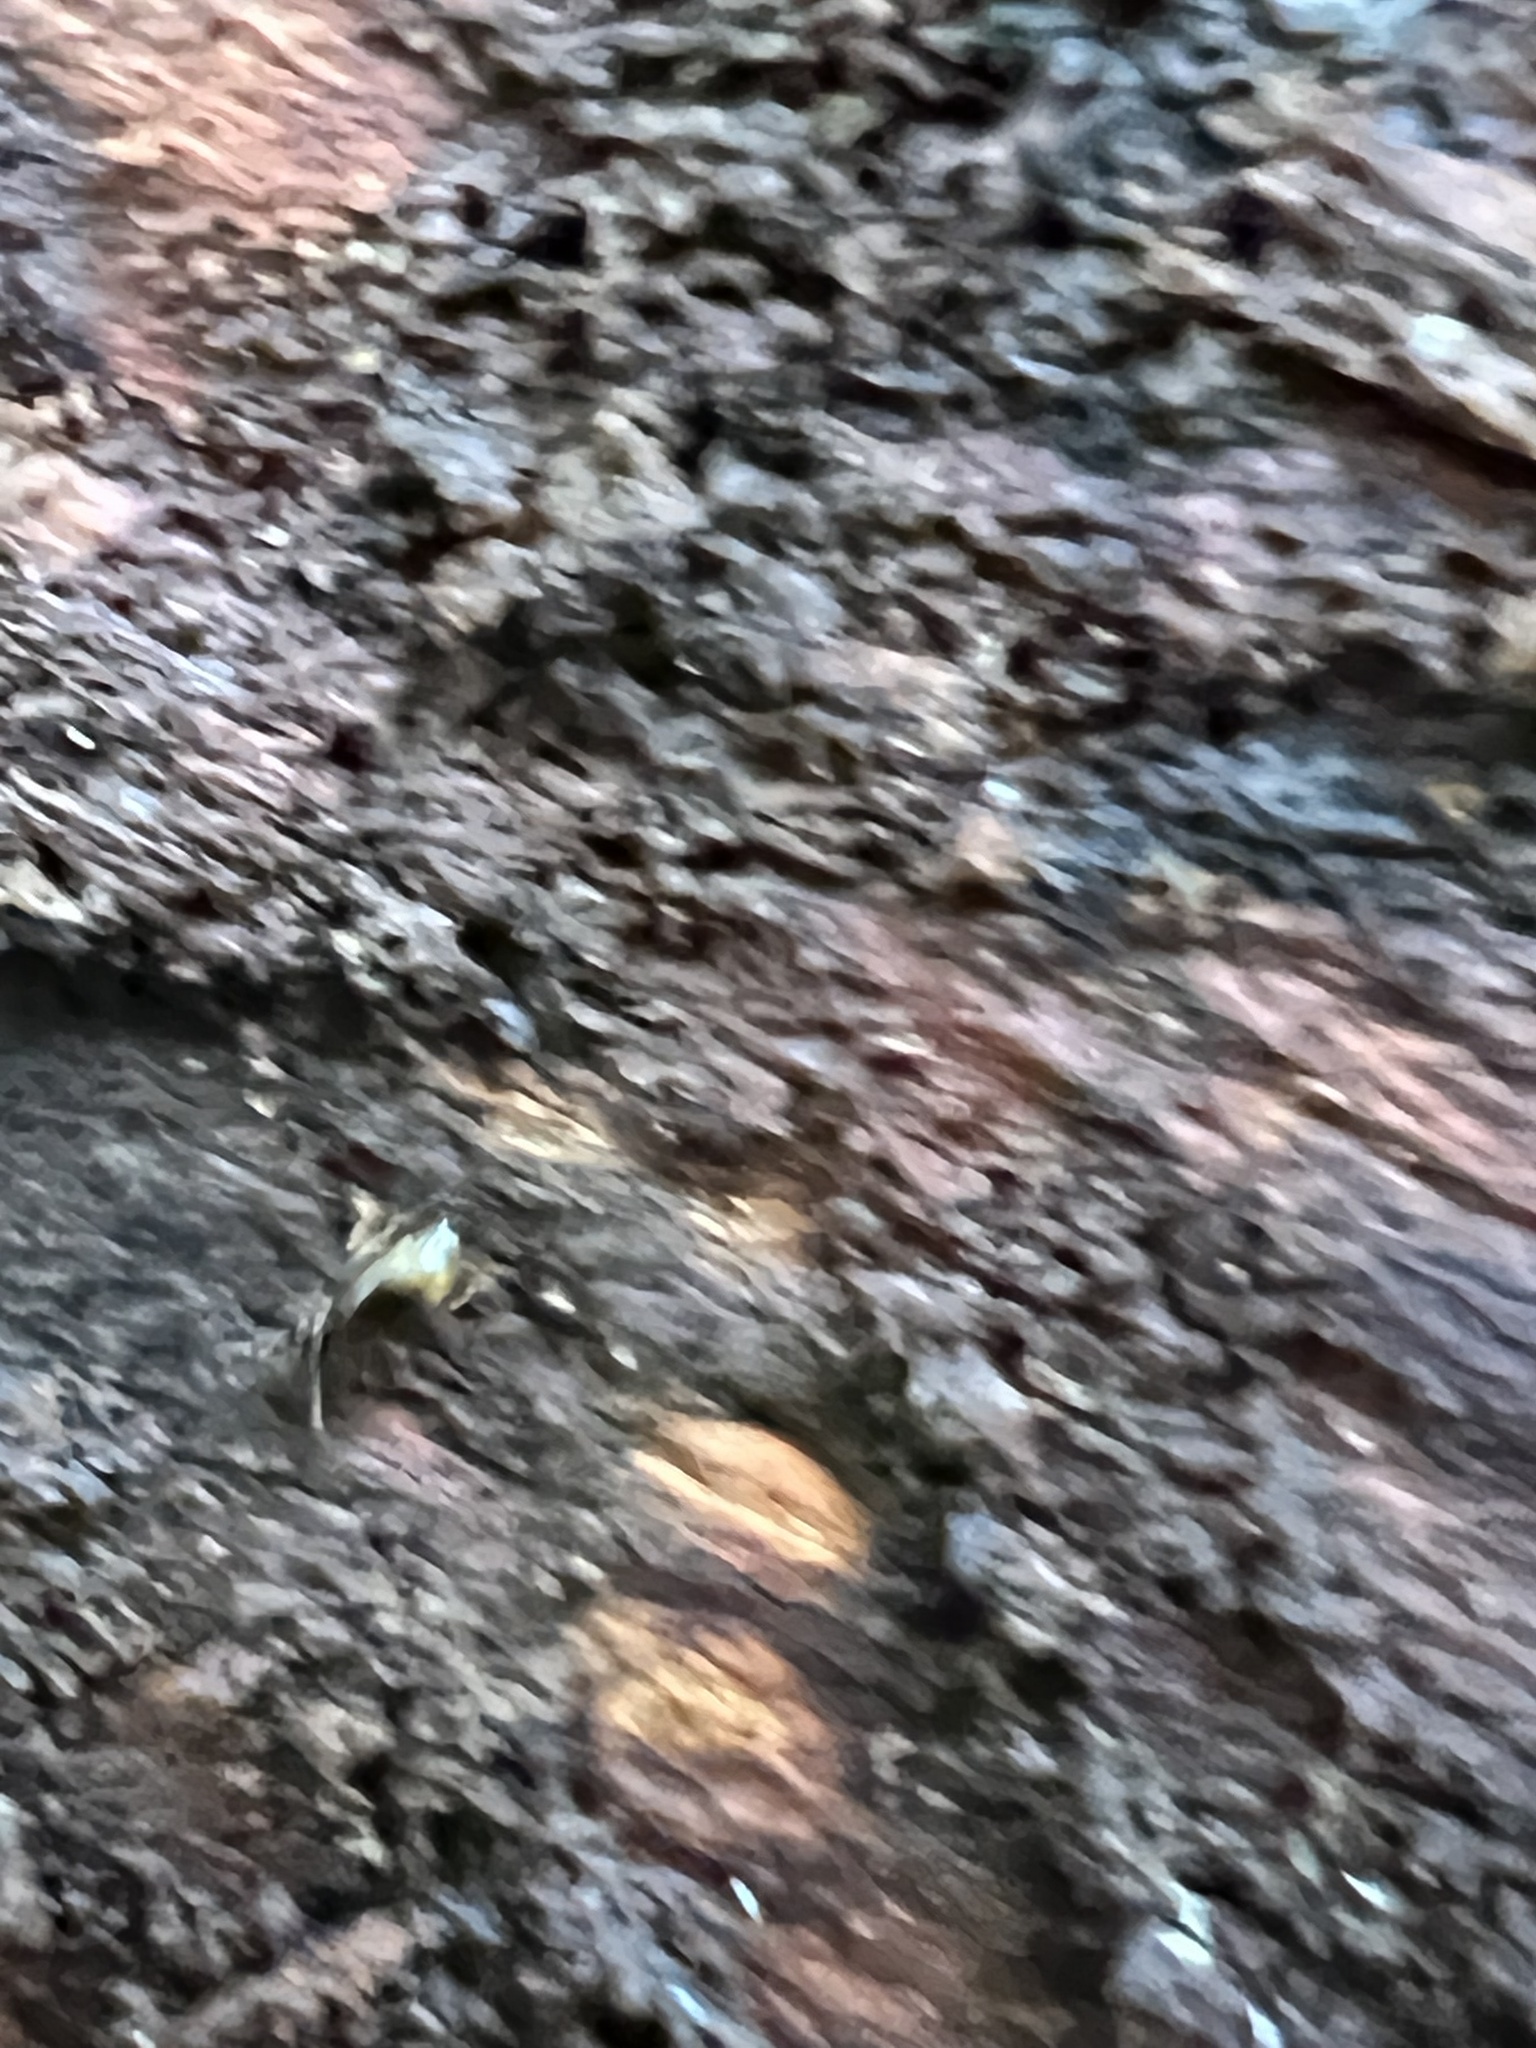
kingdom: Animalia
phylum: Arthropoda
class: Insecta
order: Coleoptera
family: Carabidae
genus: Mioptachys
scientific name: Mioptachys flavicauda
